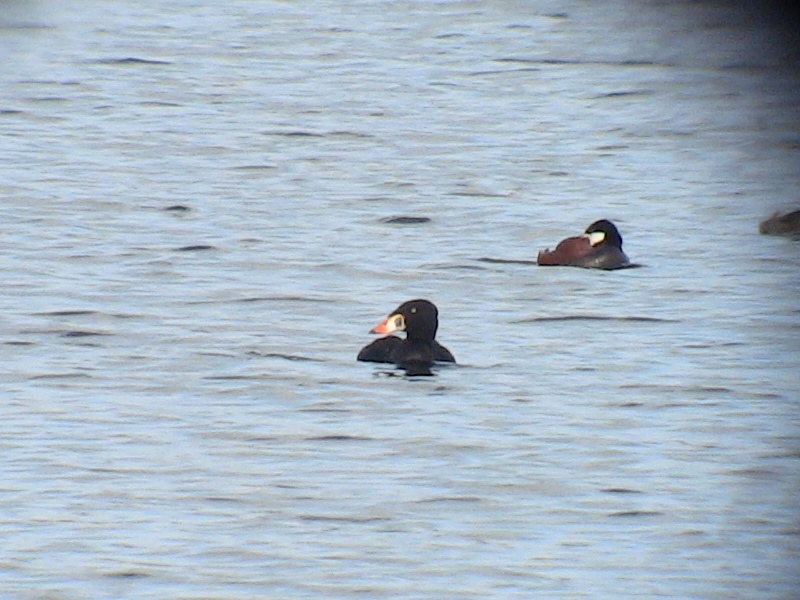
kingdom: Animalia
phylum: Chordata
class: Aves
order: Anseriformes
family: Anatidae
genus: Melanitta
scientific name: Melanitta perspicillata
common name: Surf scoter
